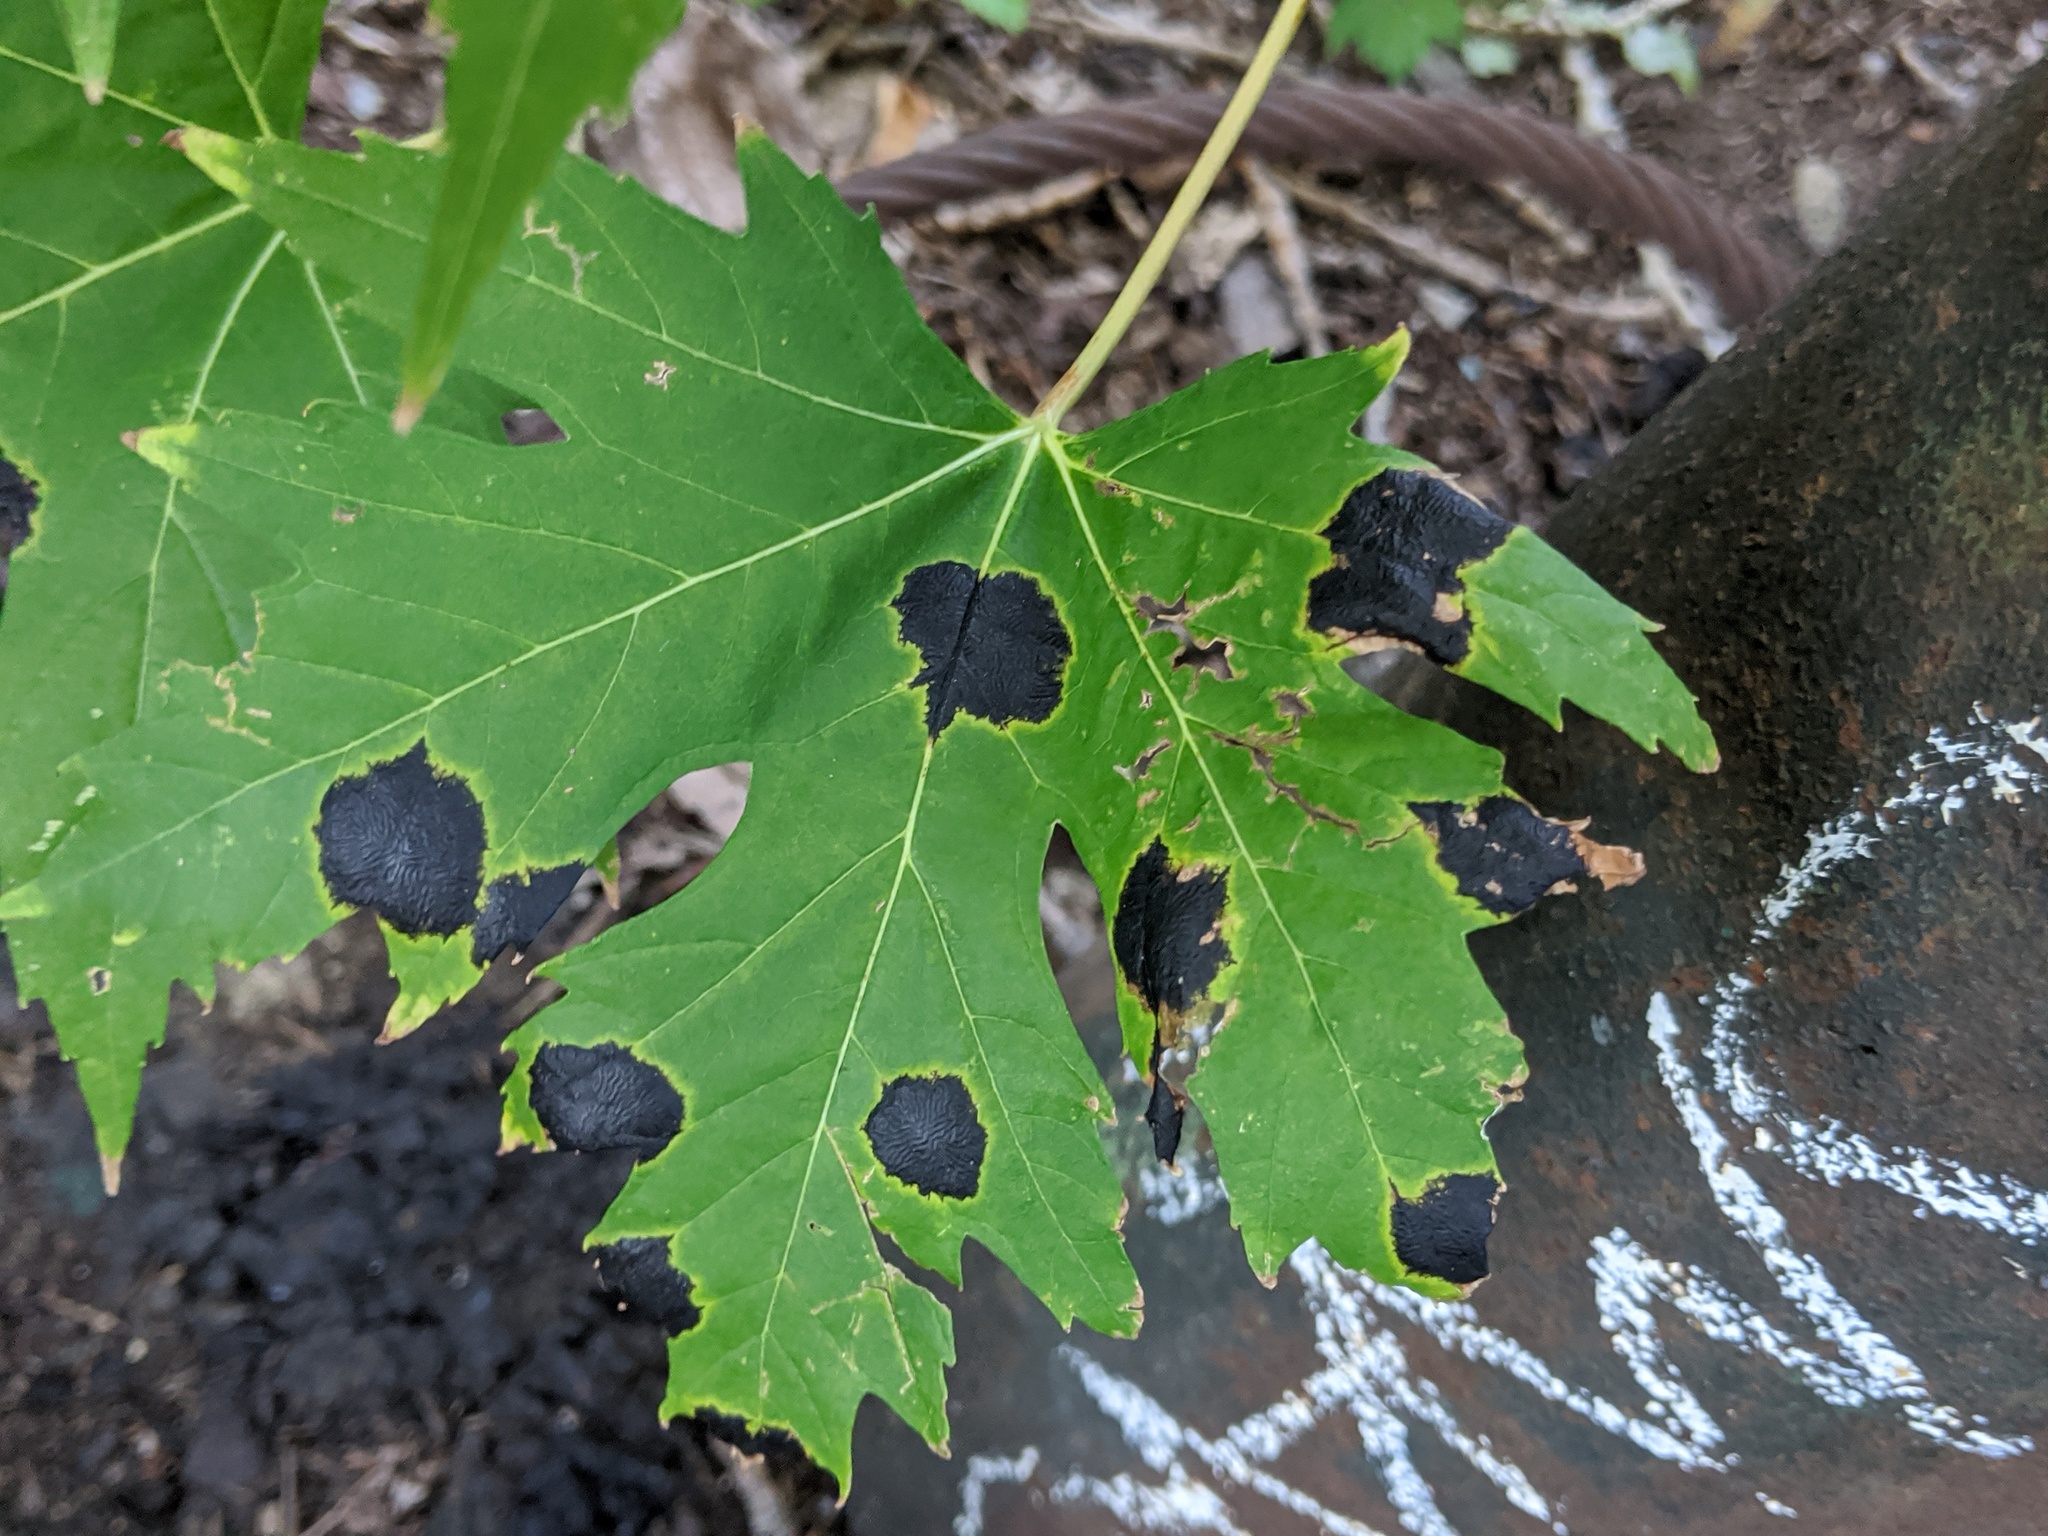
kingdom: Fungi
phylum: Ascomycota
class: Leotiomycetes
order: Rhytismatales
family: Rhytismataceae
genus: Rhytisma
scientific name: Rhytisma americanum
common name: American tar spot
